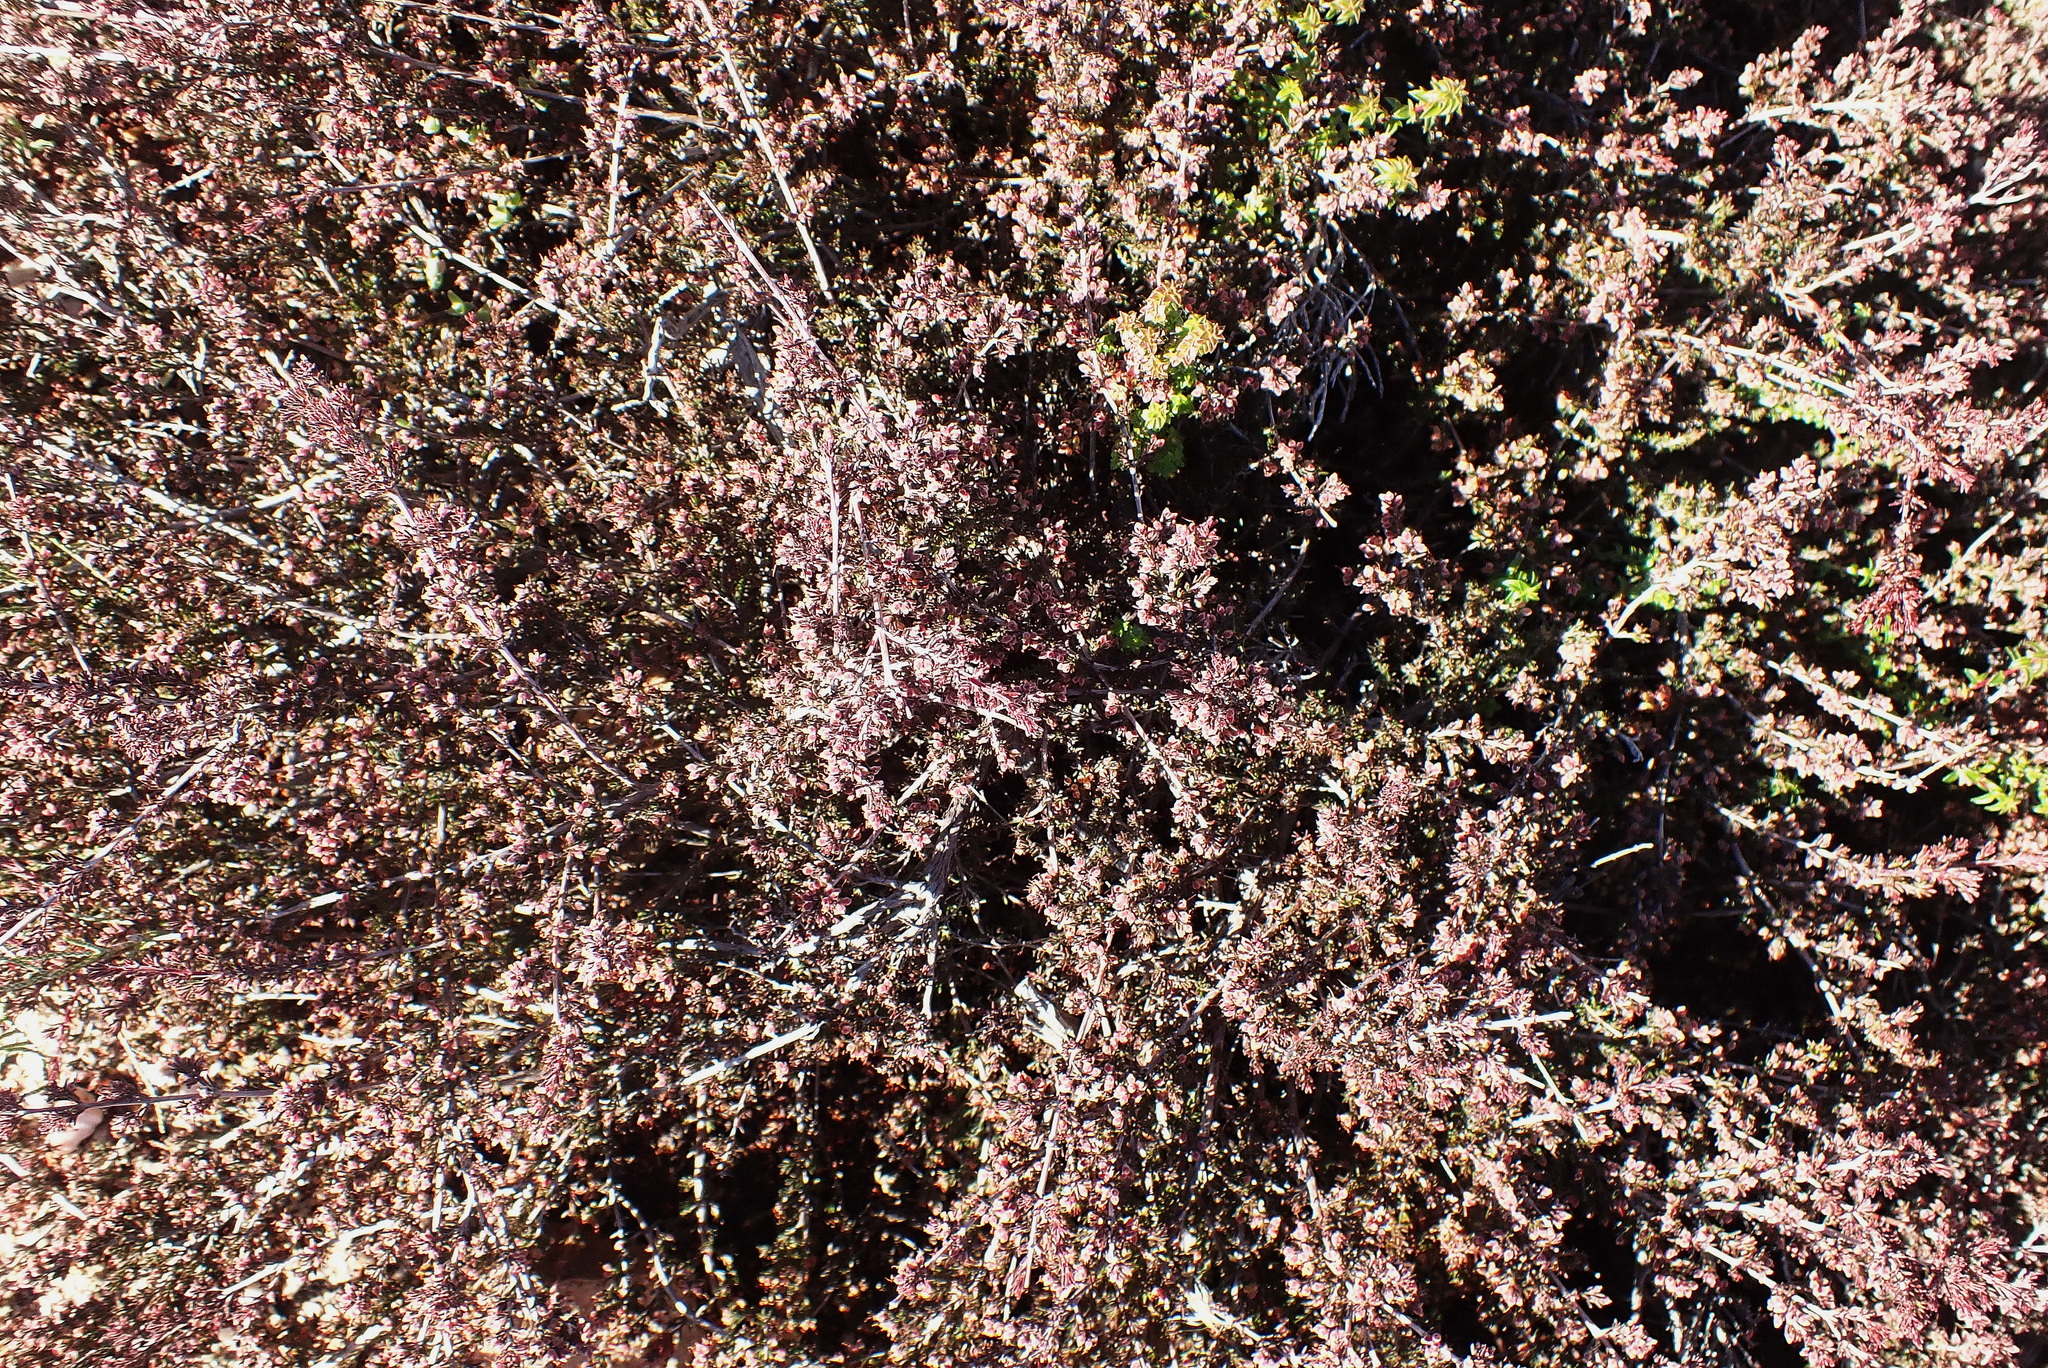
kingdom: Plantae
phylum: Tracheophyta
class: Magnoliopsida
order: Ericales
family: Ericaceae
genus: Erica
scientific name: Erica anguliger
